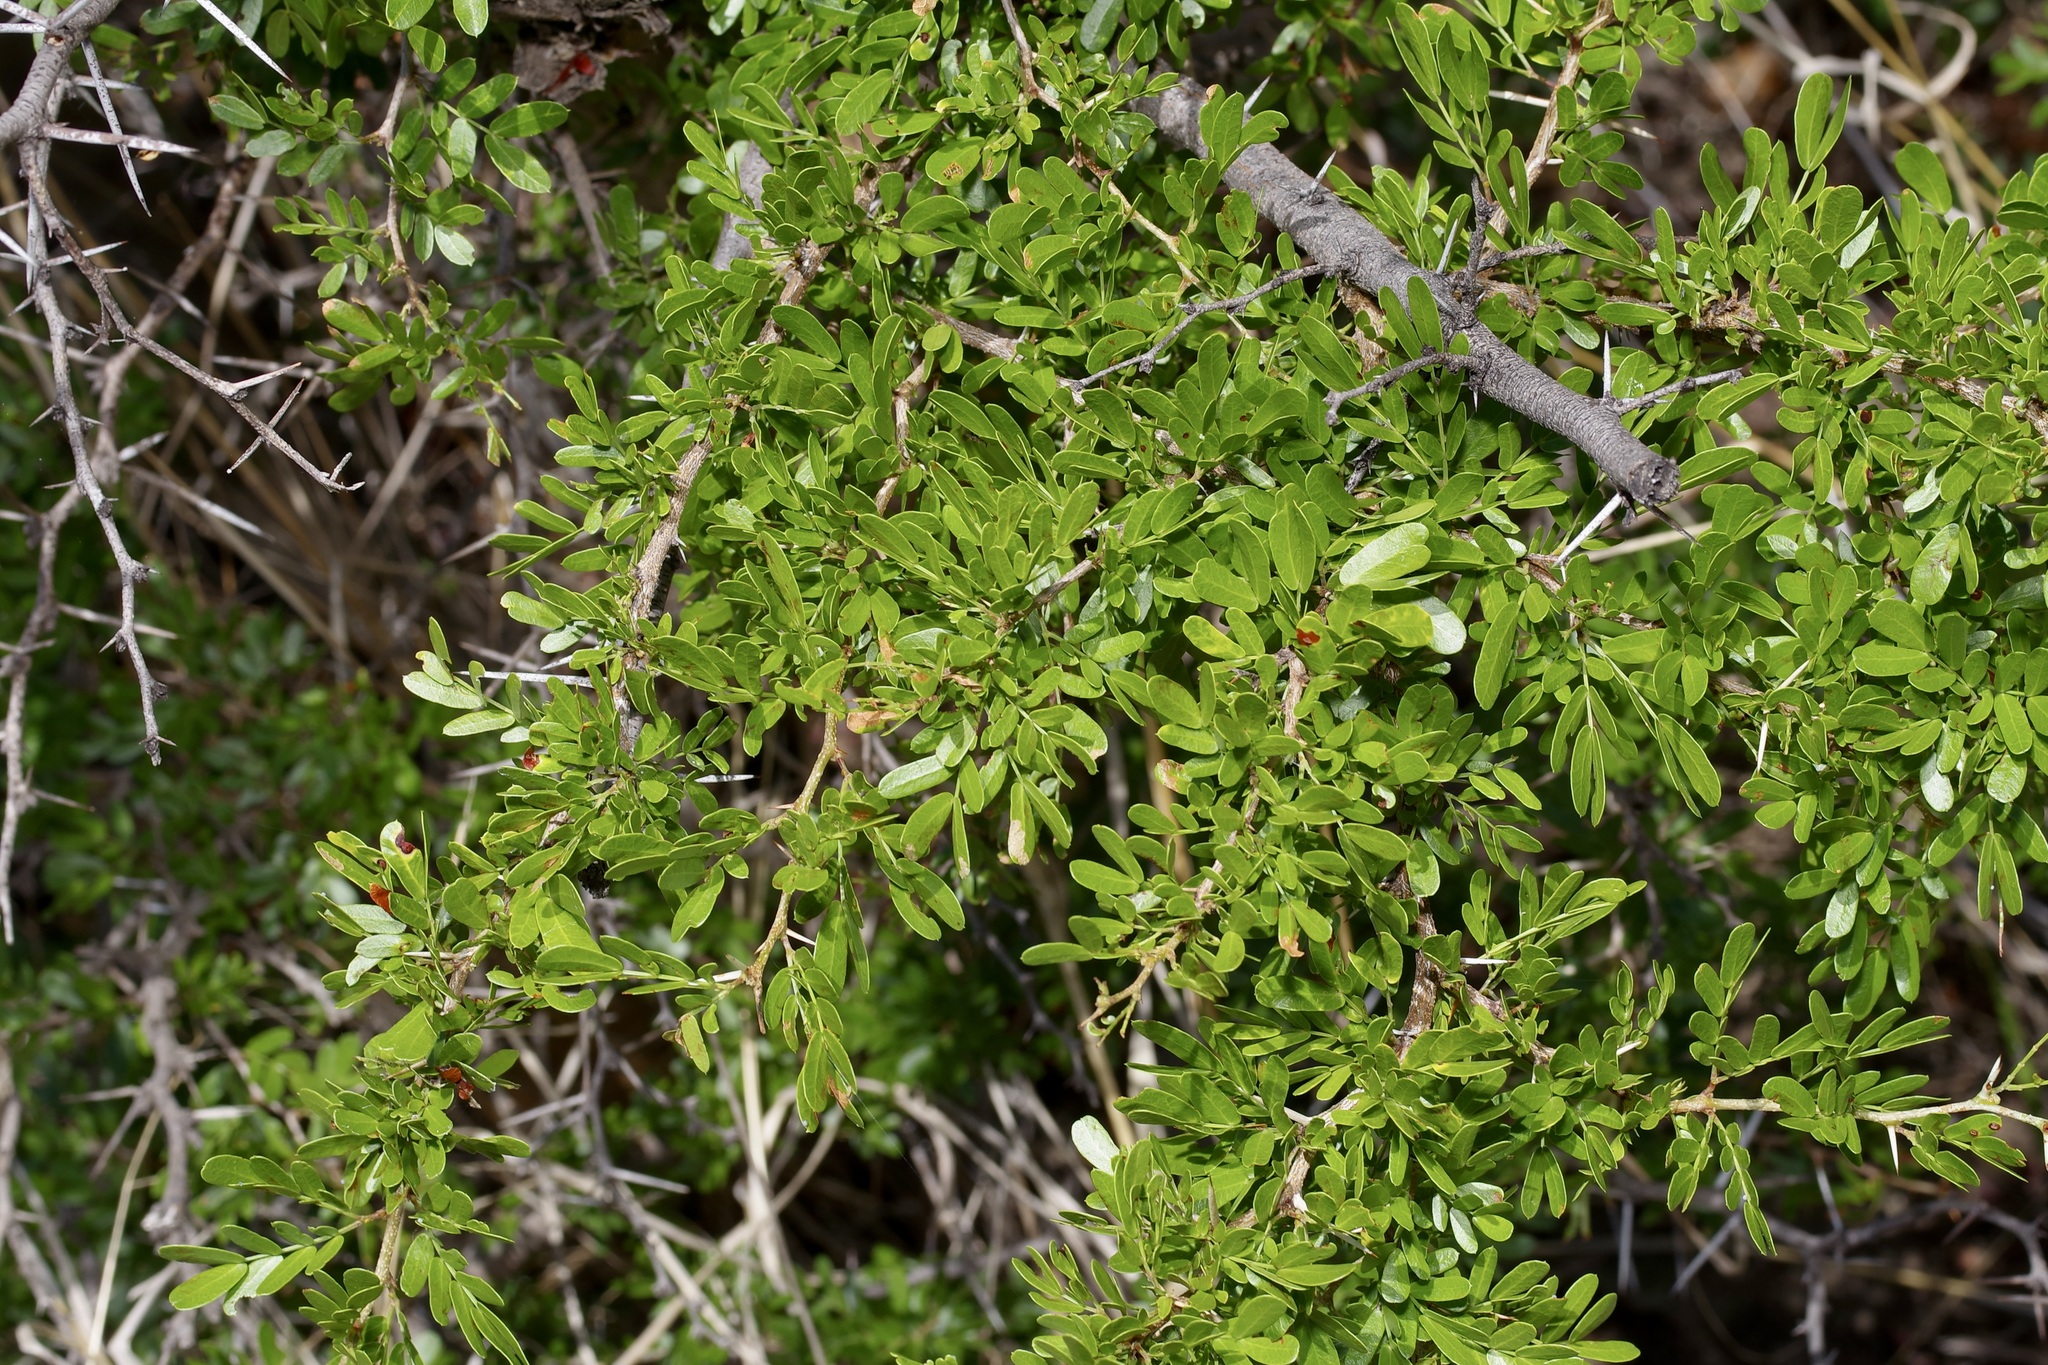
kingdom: Plantae
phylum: Tracheophyta
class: Magnoliopsida
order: Fabales
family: Fabaceae
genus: Vachellia
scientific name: Vachellia rigidula
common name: Blackbrush
